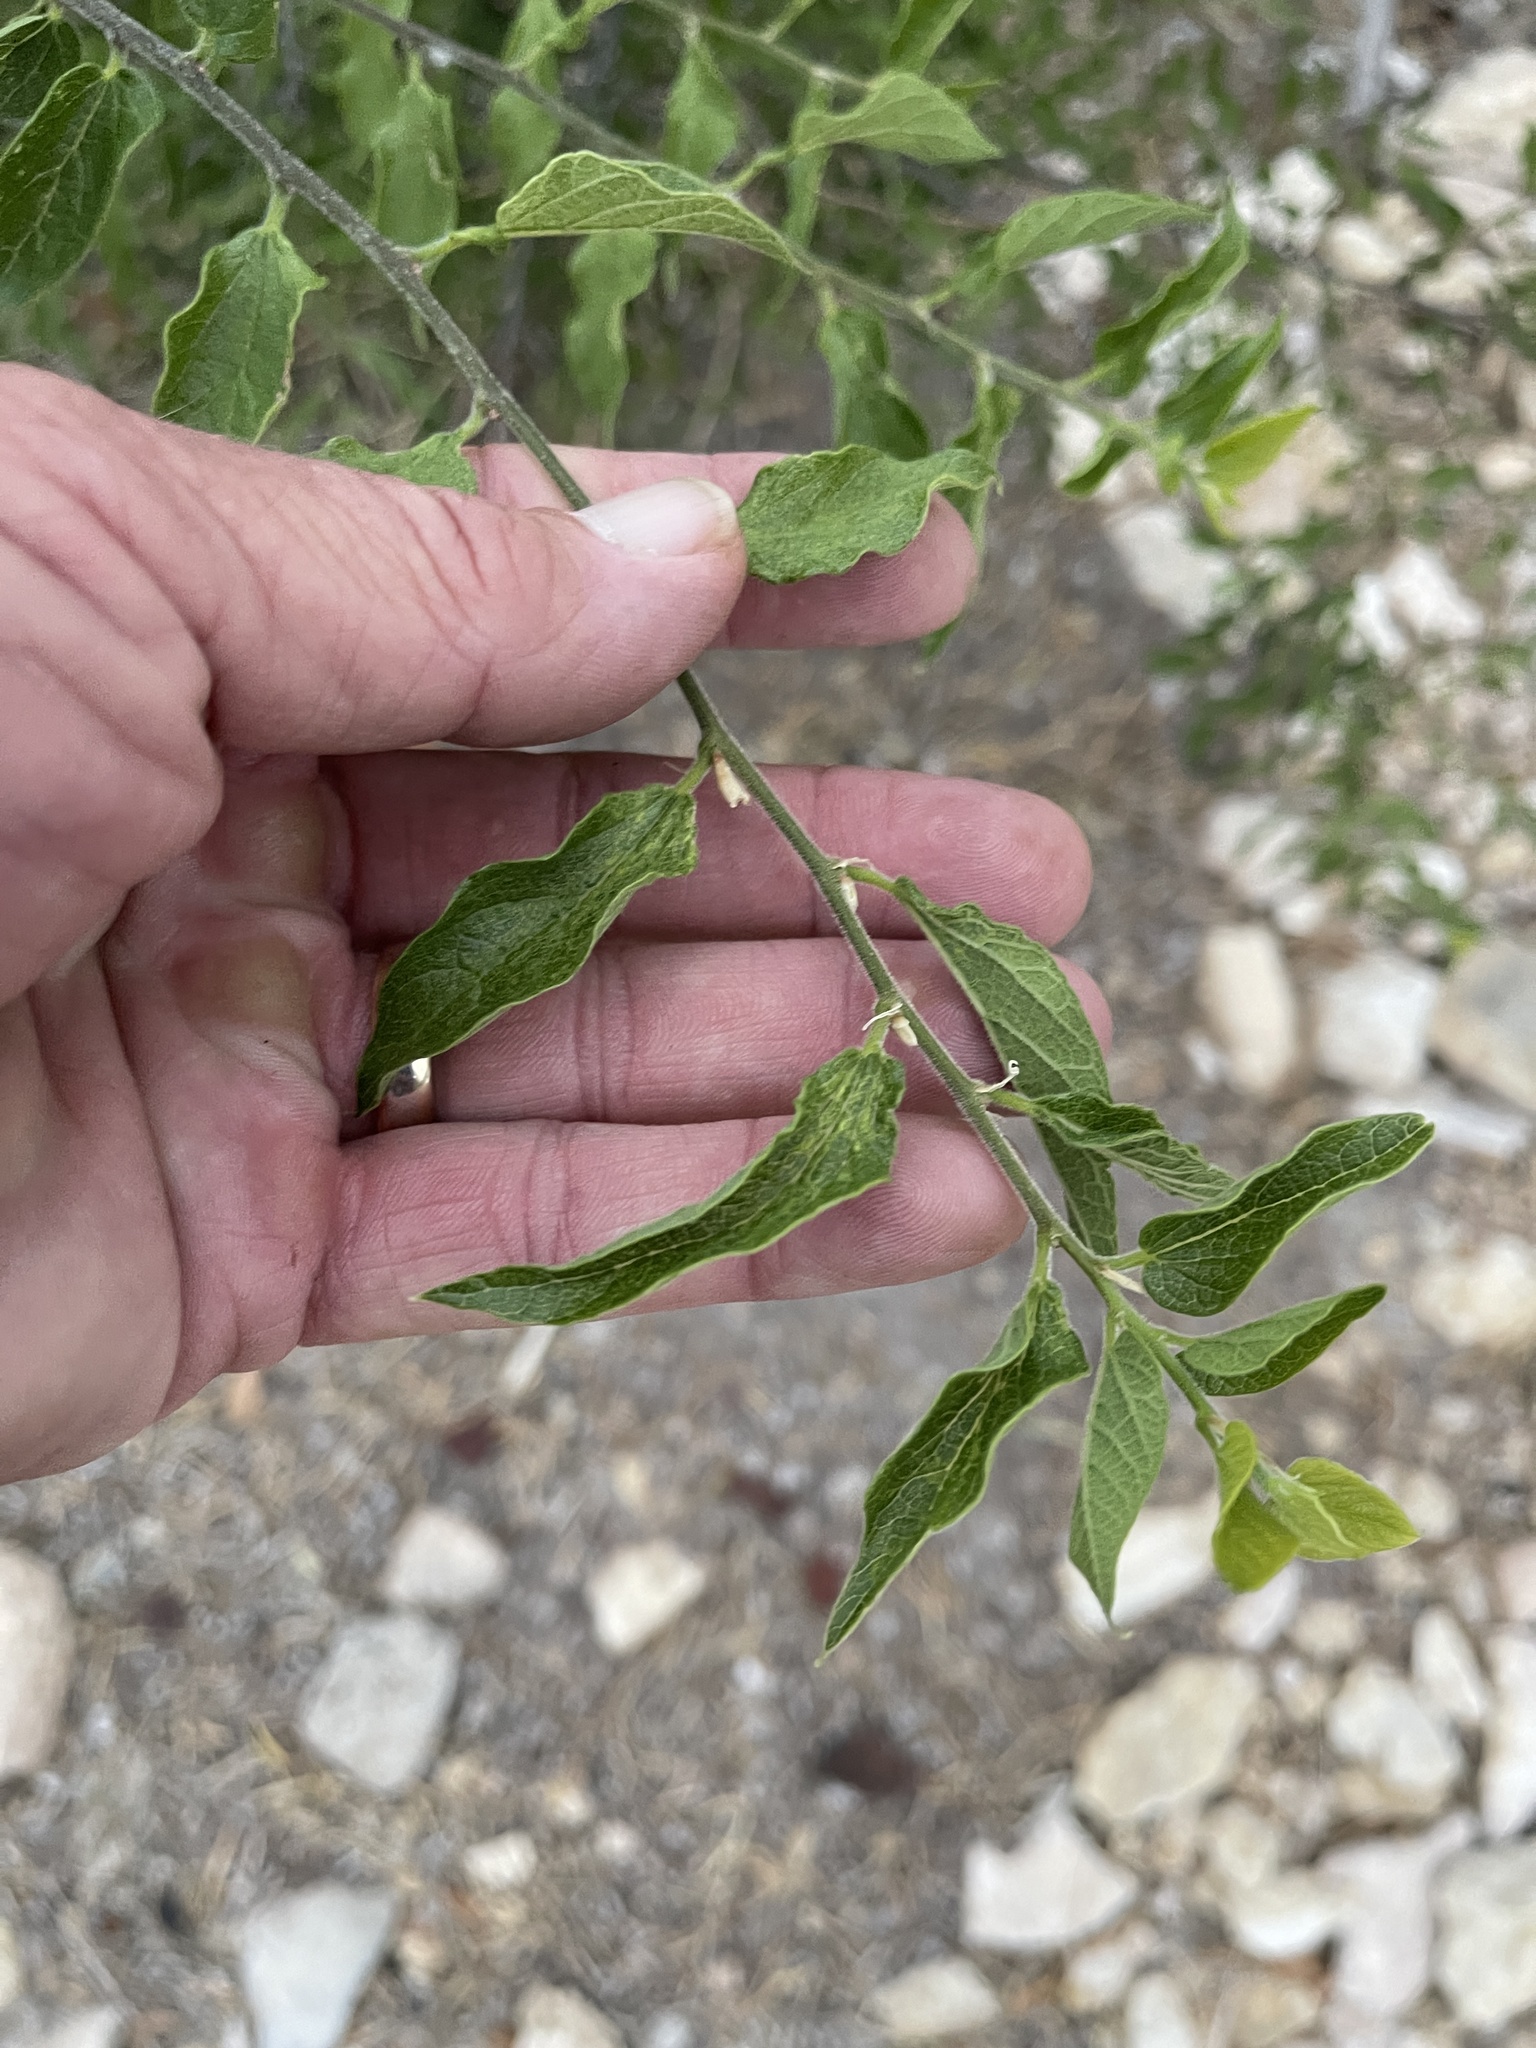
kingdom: Plantae
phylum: Tracheophyta
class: Magnoliopsida
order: Rosales
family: Cannabaceae
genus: Celtis
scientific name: Celtis reticulata
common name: Netleaf hackberry
